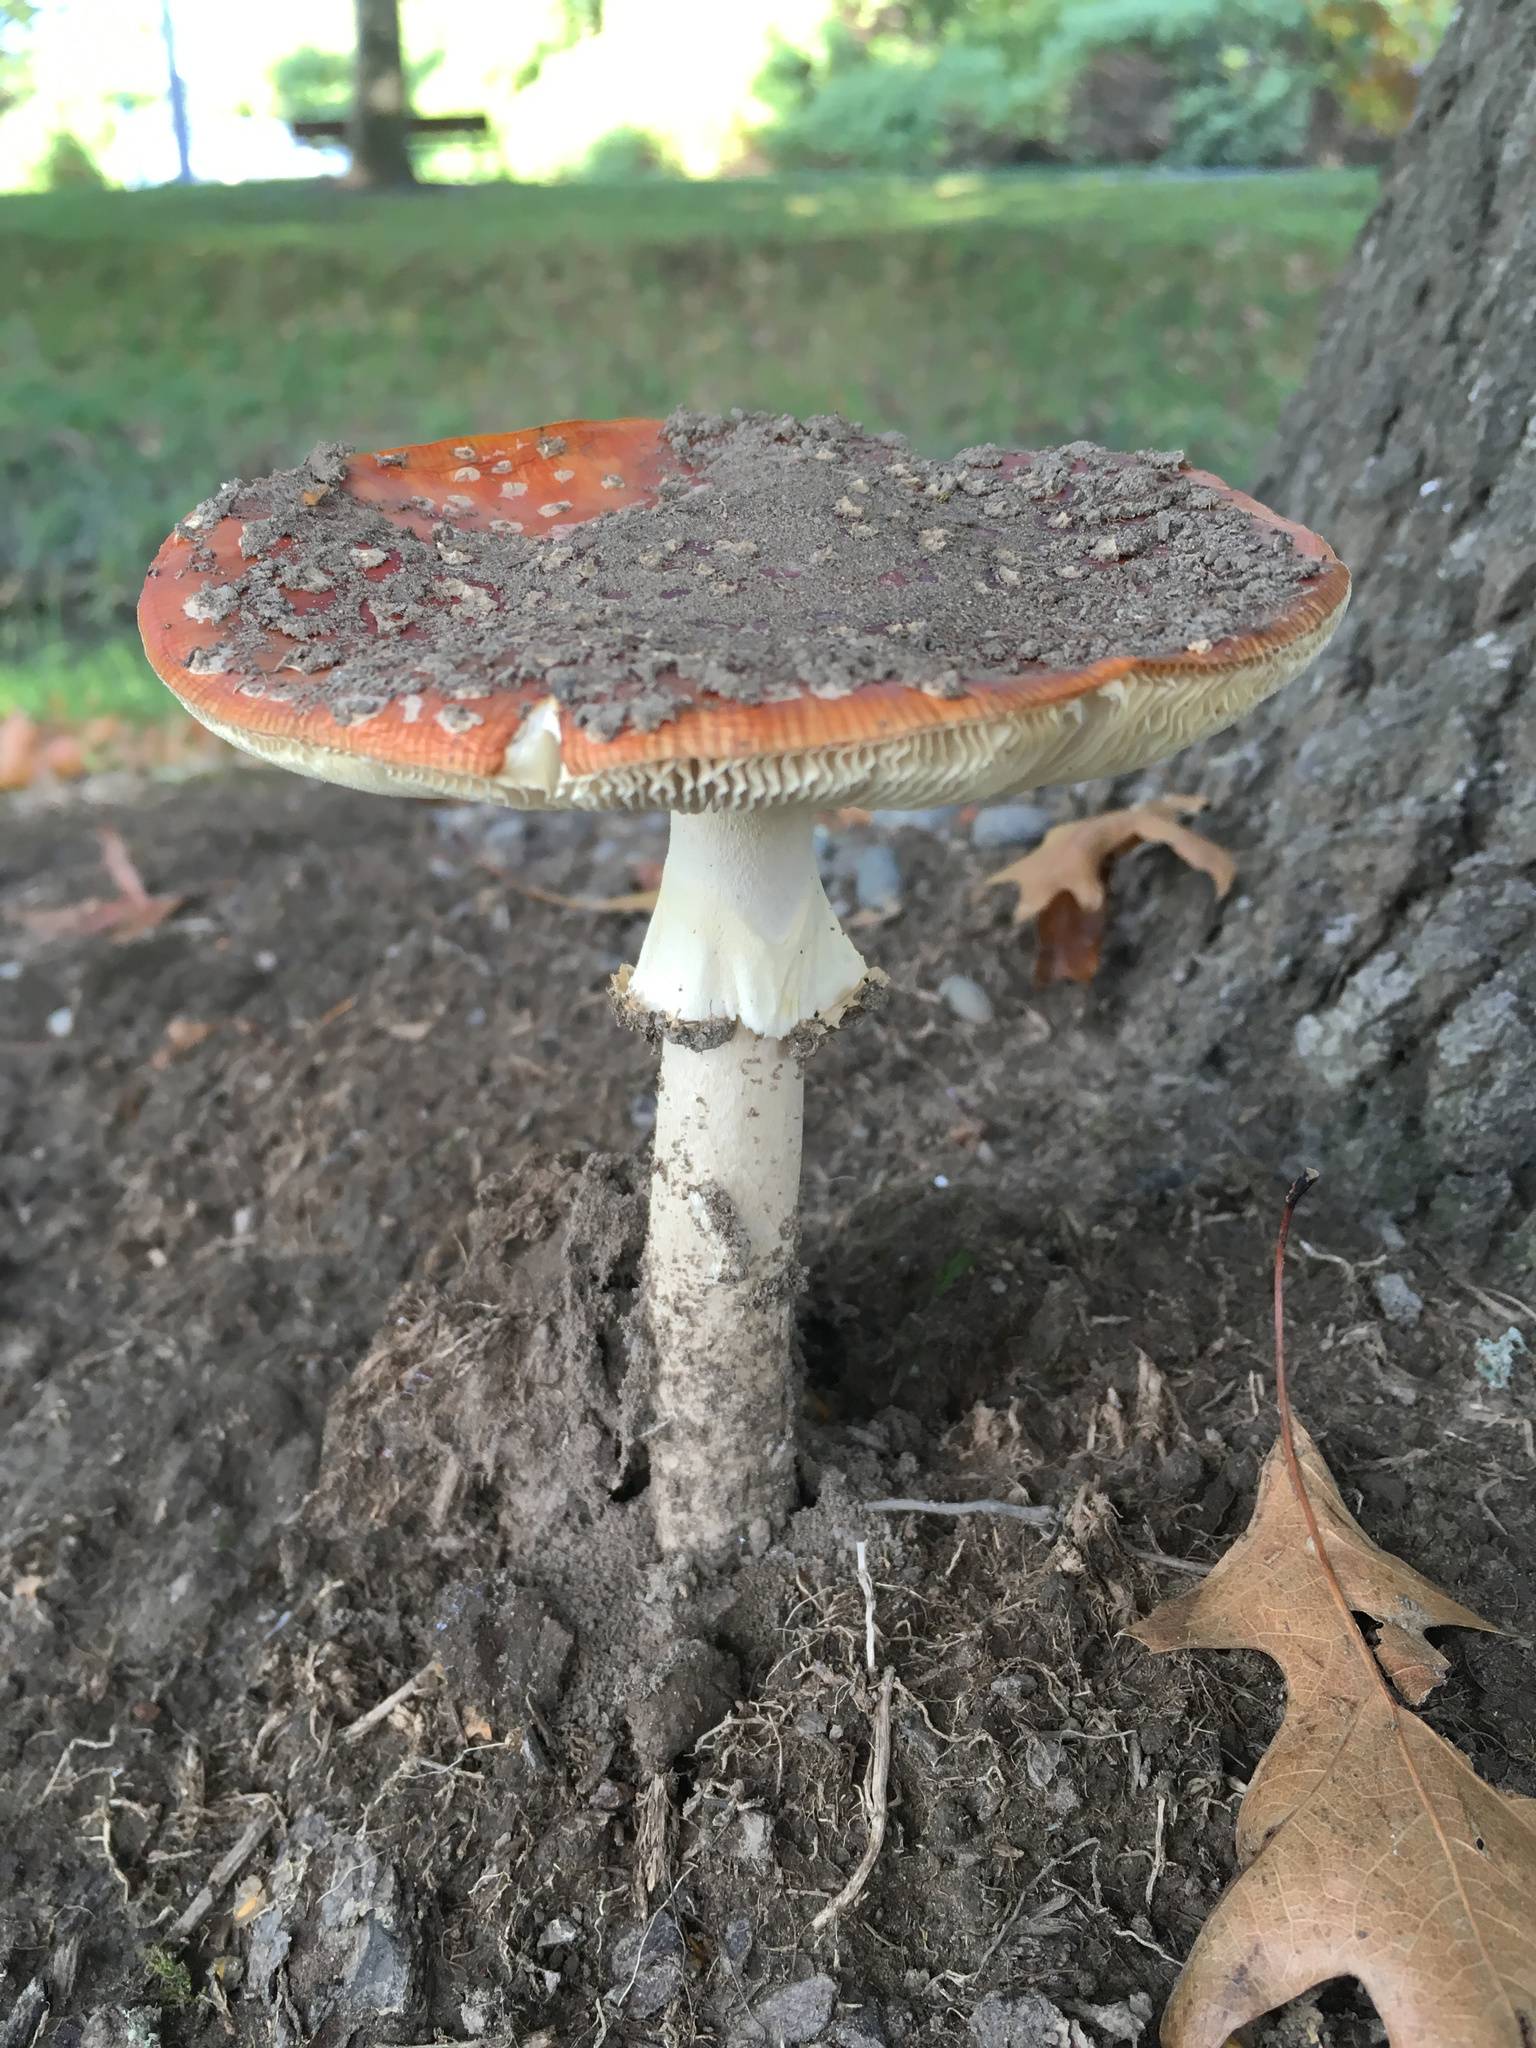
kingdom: Fungi
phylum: Basidiomycota
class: Agaricomycetes
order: Agaricales
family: Amanitaceae
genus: Amanita
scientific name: Amanita muscaria
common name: Fly agaric
